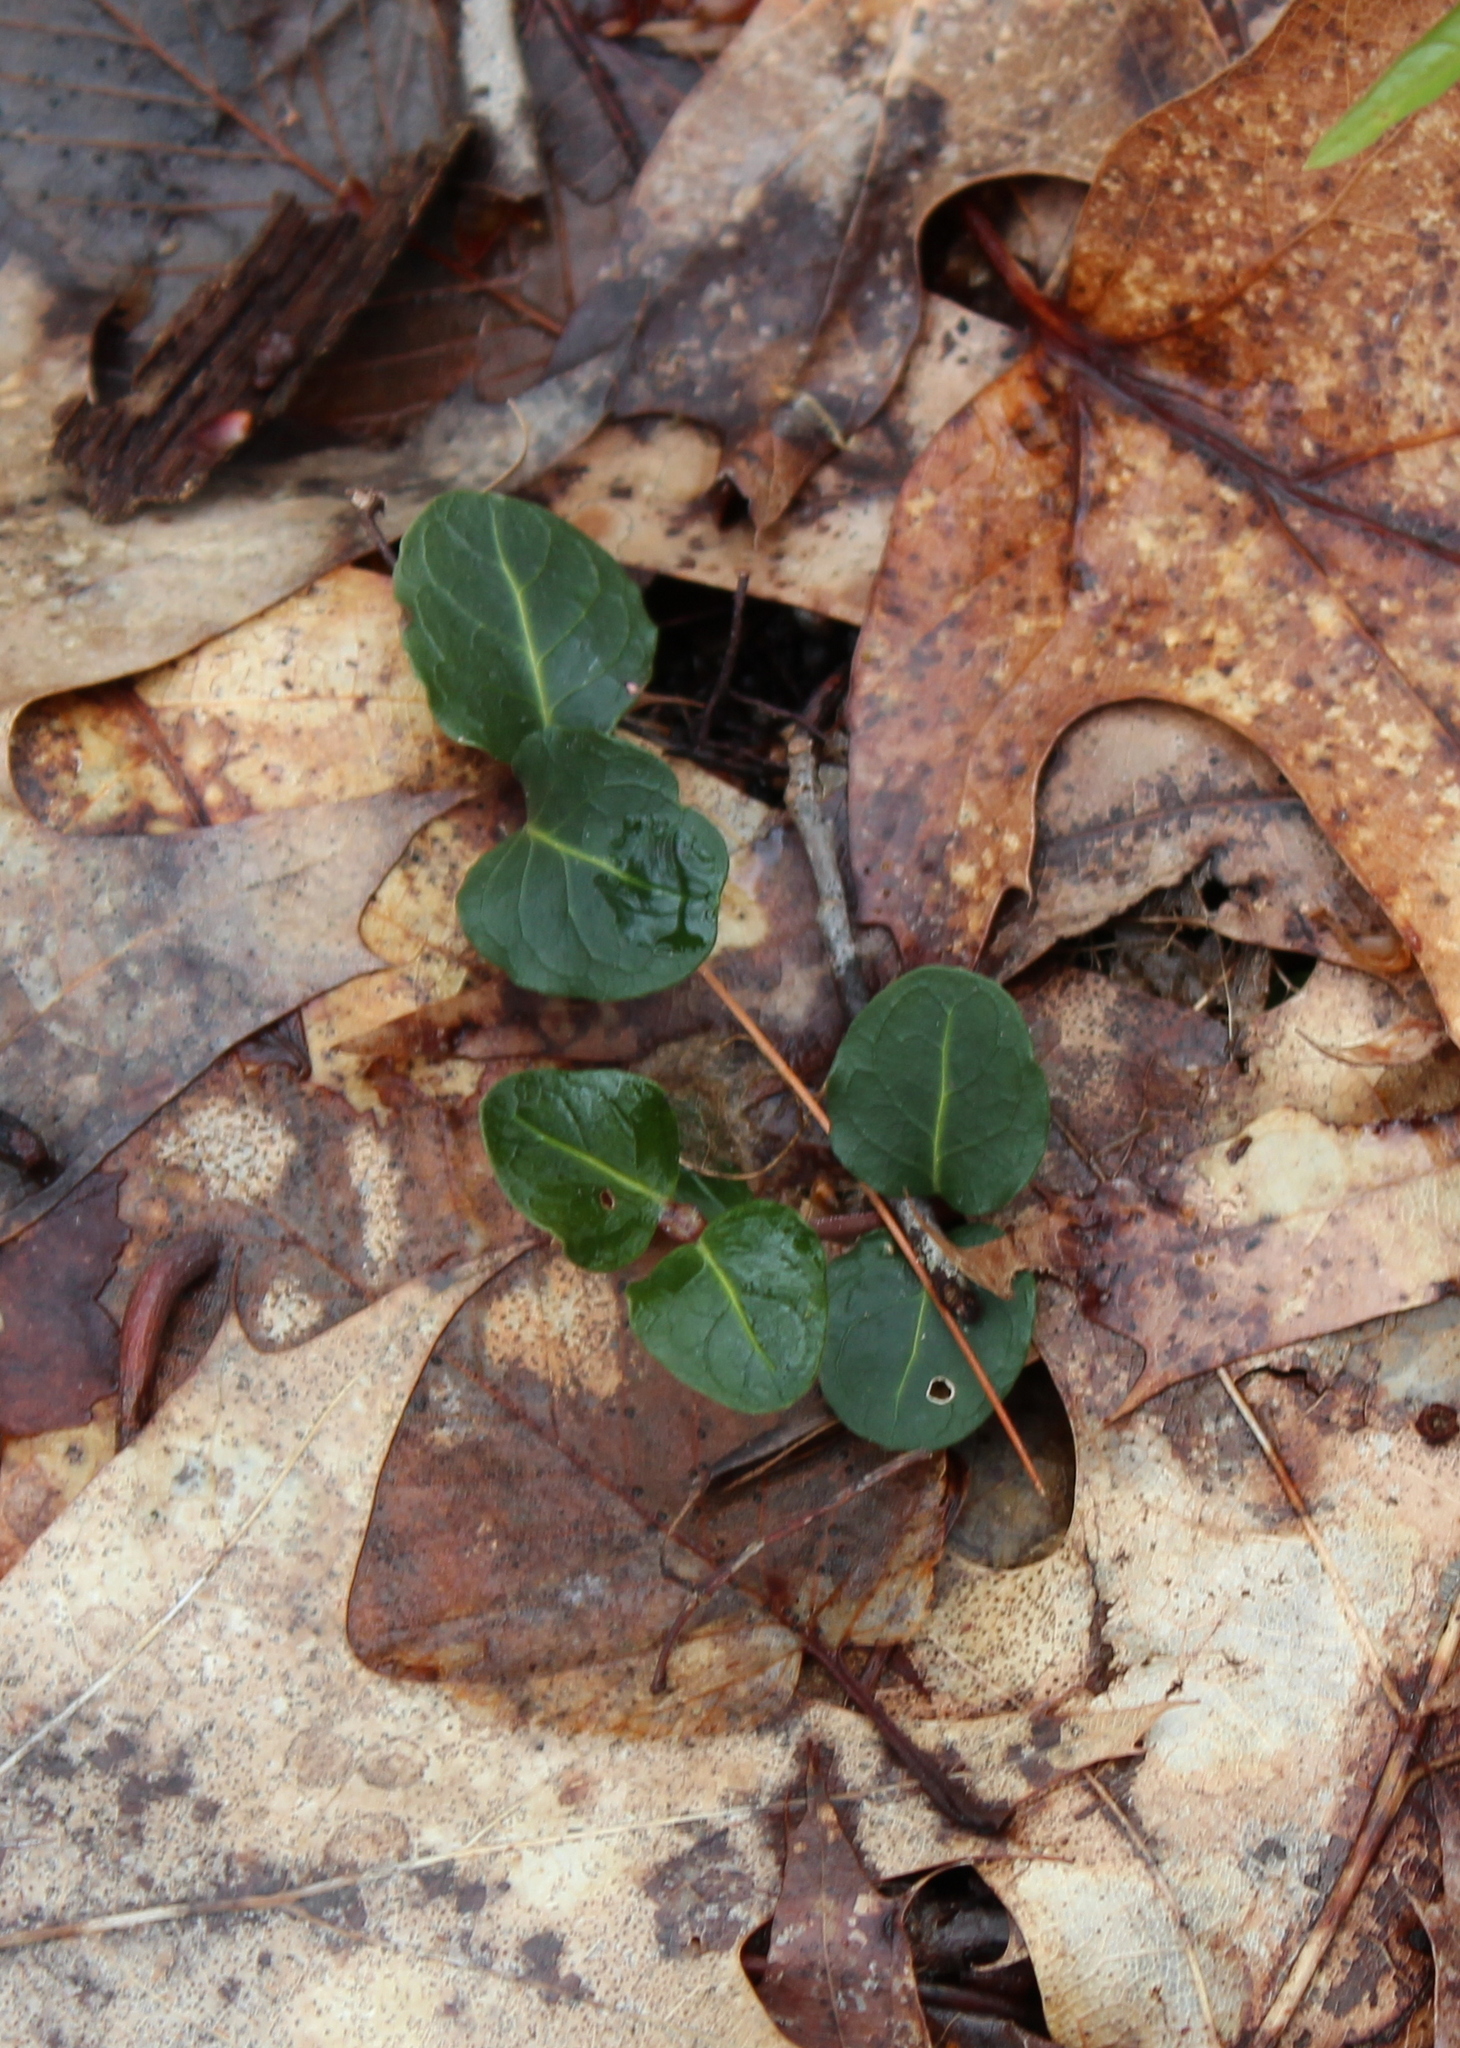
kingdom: Plantae
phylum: Tracheophyta
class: Magnoliopsida
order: Gentianales
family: Rubiaceae
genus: Mitchella
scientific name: Mitchella repens
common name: Partridge-berry
